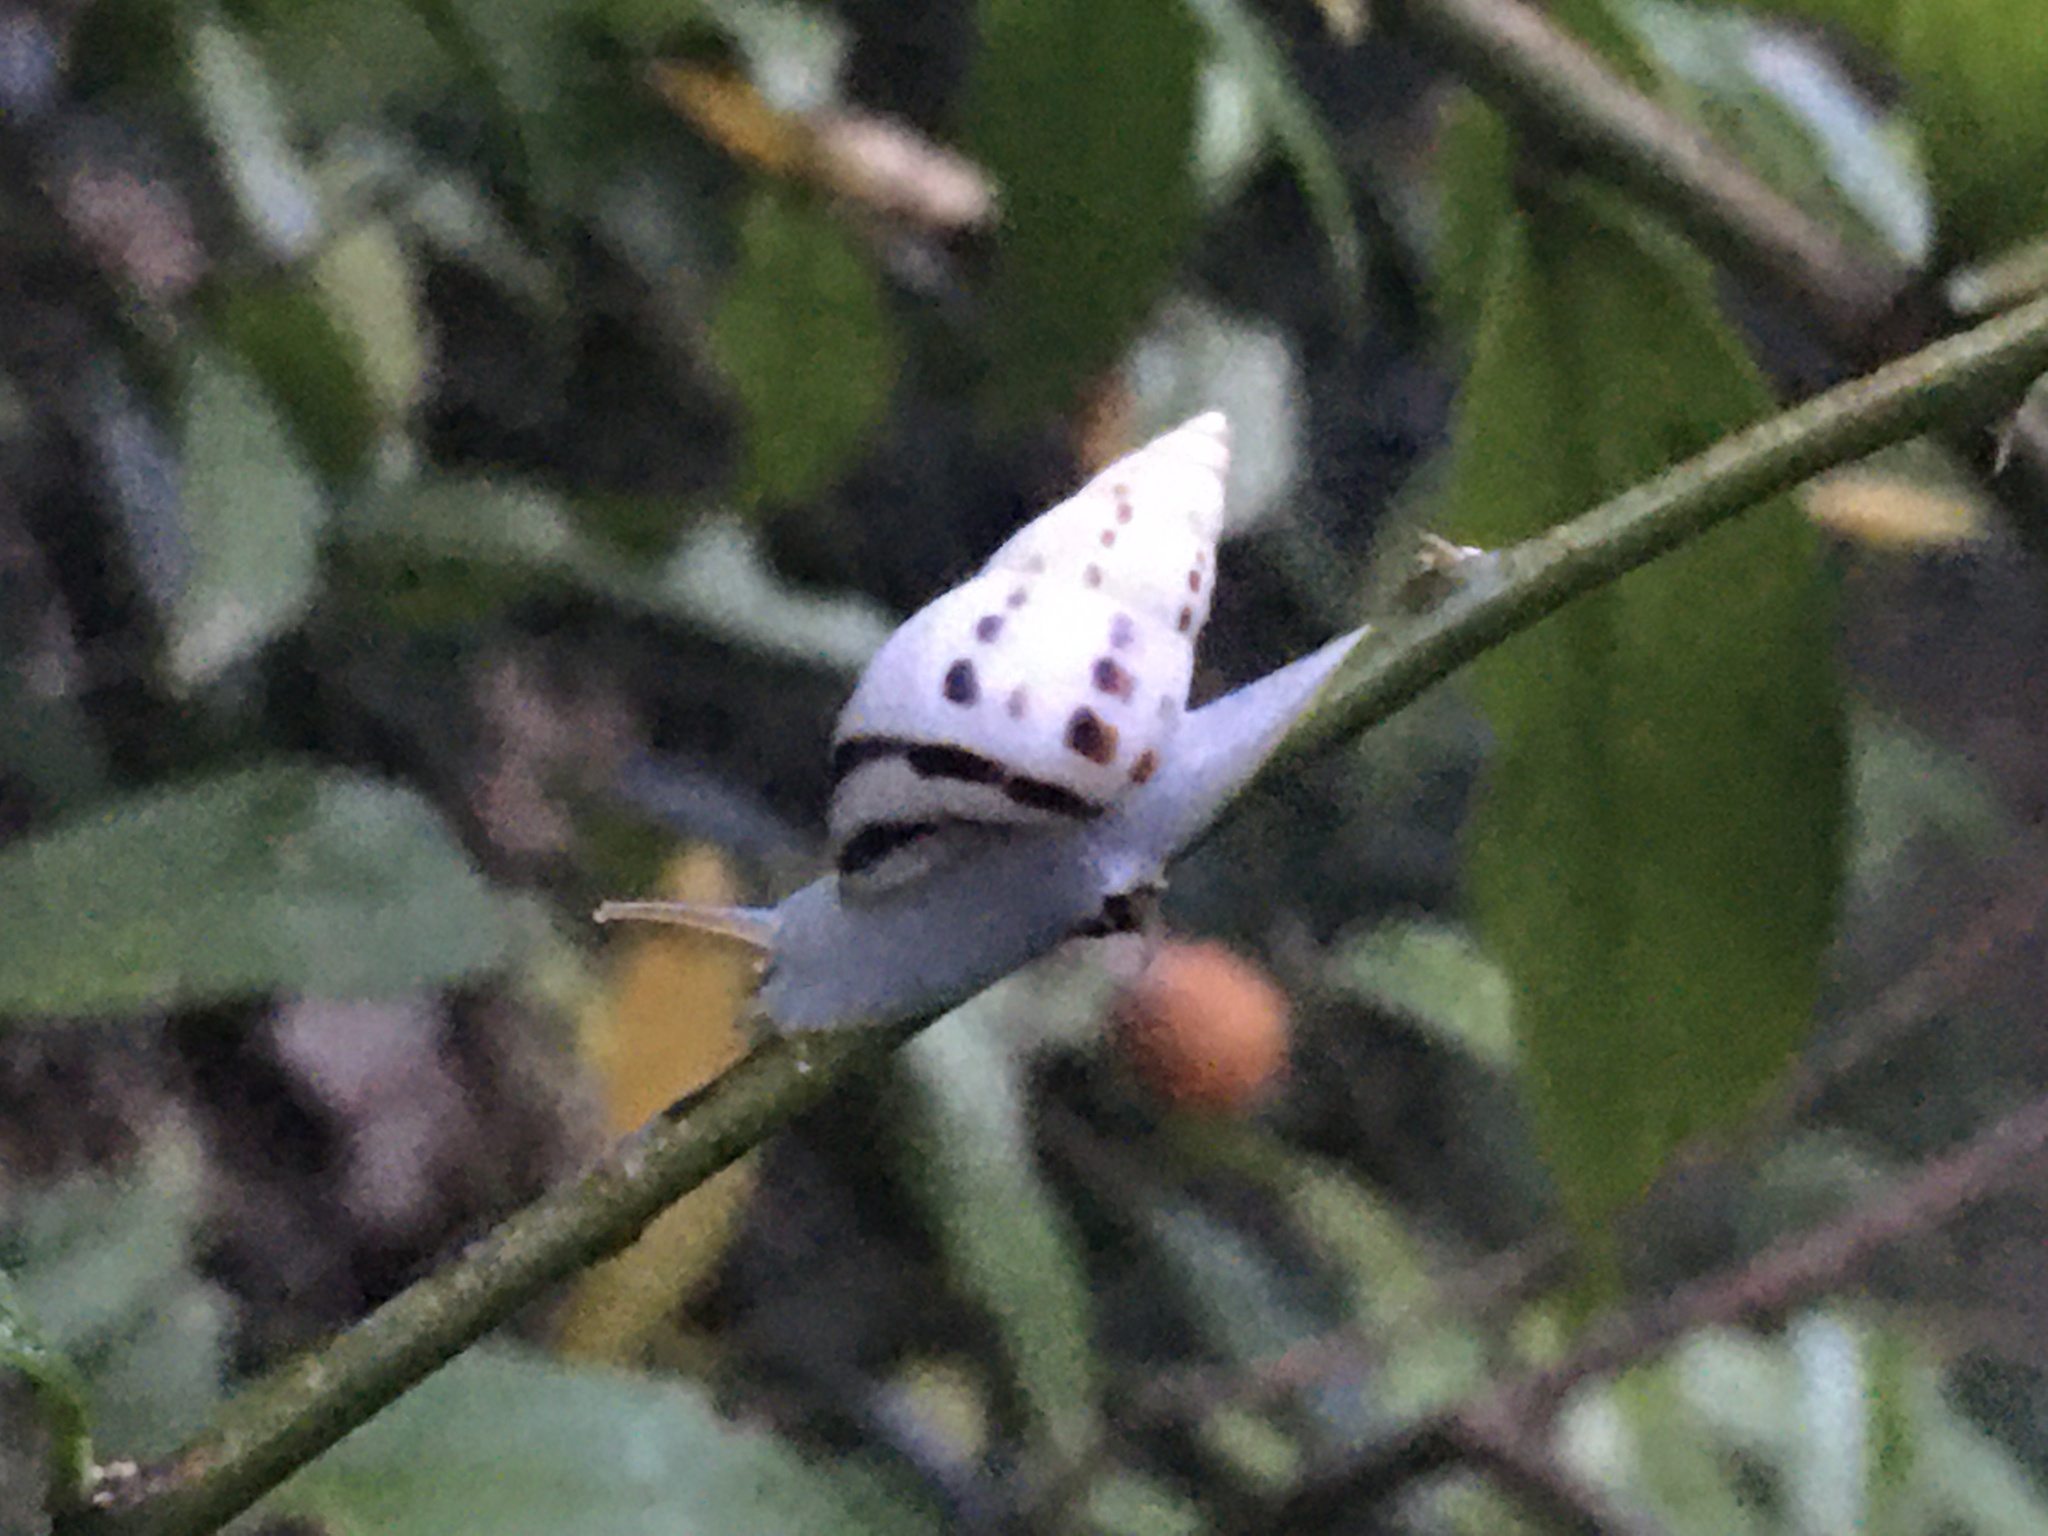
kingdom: Animalia
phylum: Mollusca
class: Gastropoda
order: Stylommatophora
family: Bulimulidae
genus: Drymaeus
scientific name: Drymaeus
